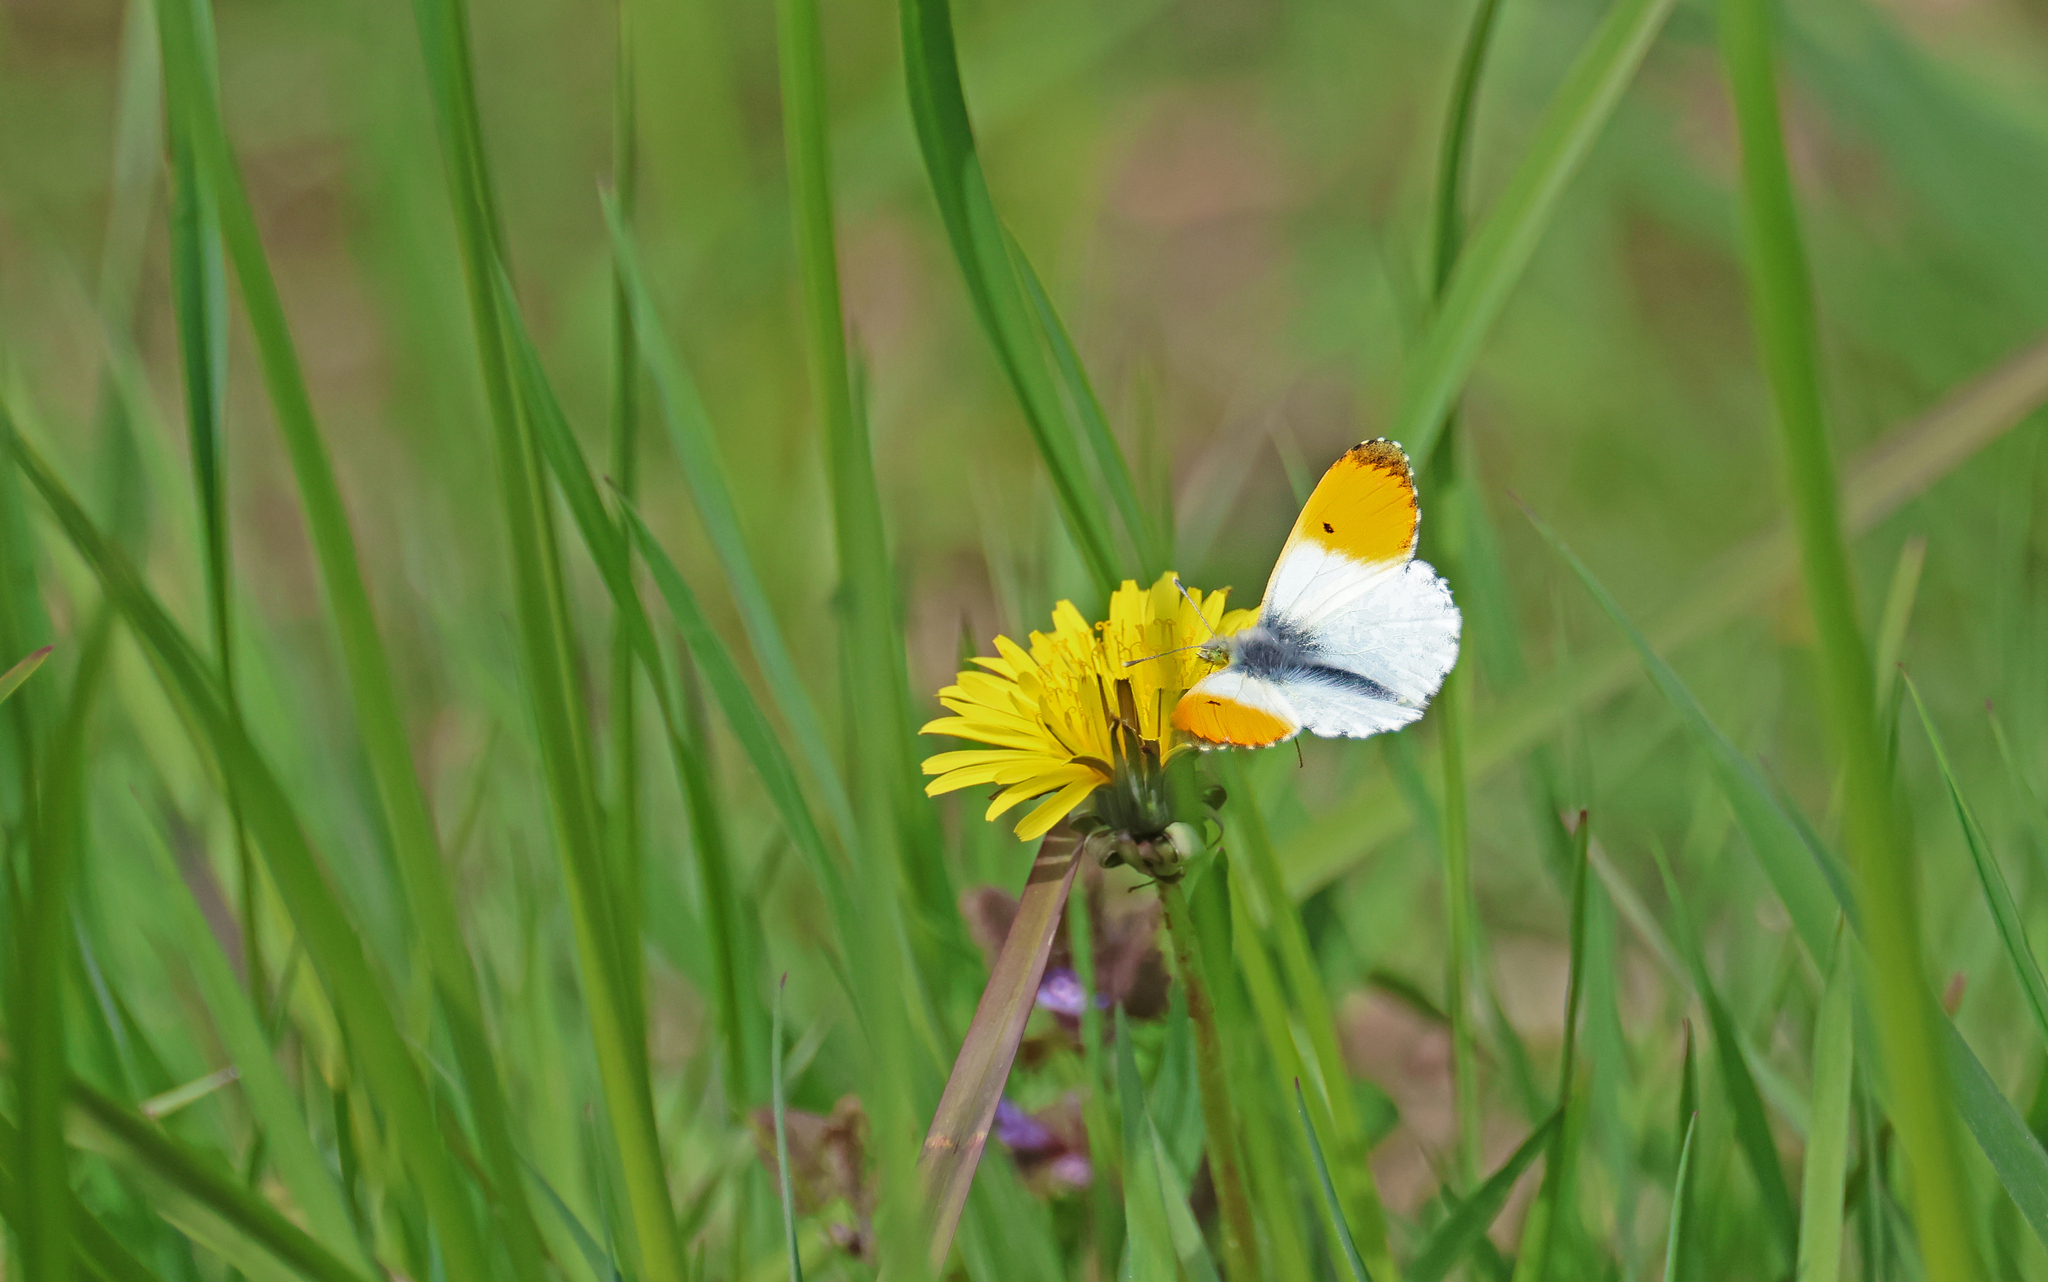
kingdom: Animalia
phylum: Arthropoda
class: Insecta
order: Lepidoptera
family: Pieridae
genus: Anthocharis
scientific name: Anthocharis cardamines
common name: Orange-tip
